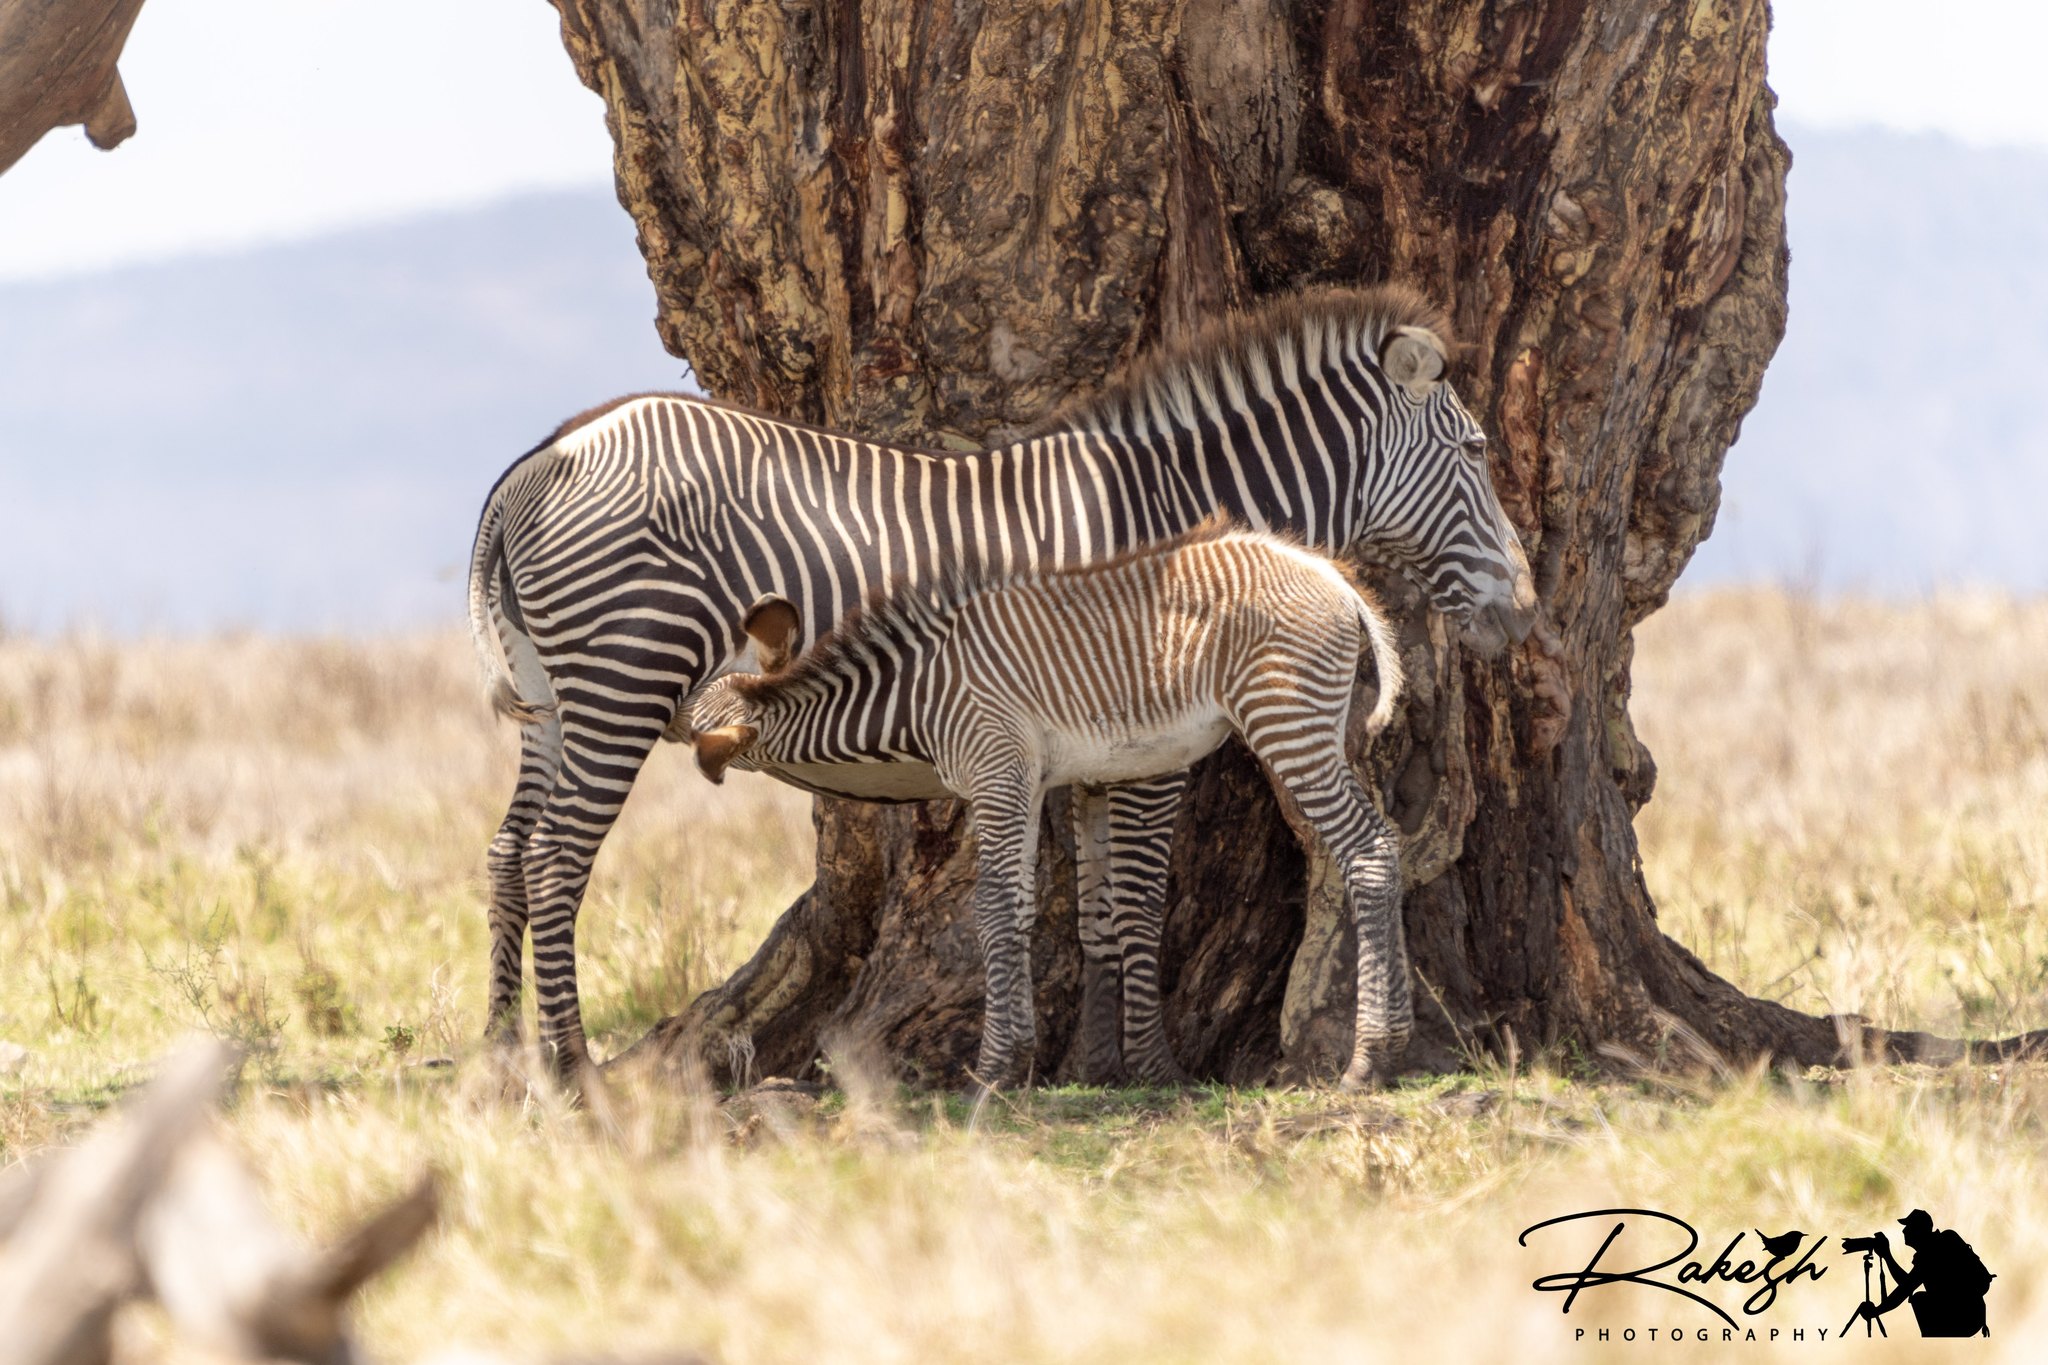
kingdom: Animalia
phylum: Chordata
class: Mammalia
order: Perissodactyla
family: Equidae
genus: Equus
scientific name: Equus grevyi
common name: Grevy's zebra
